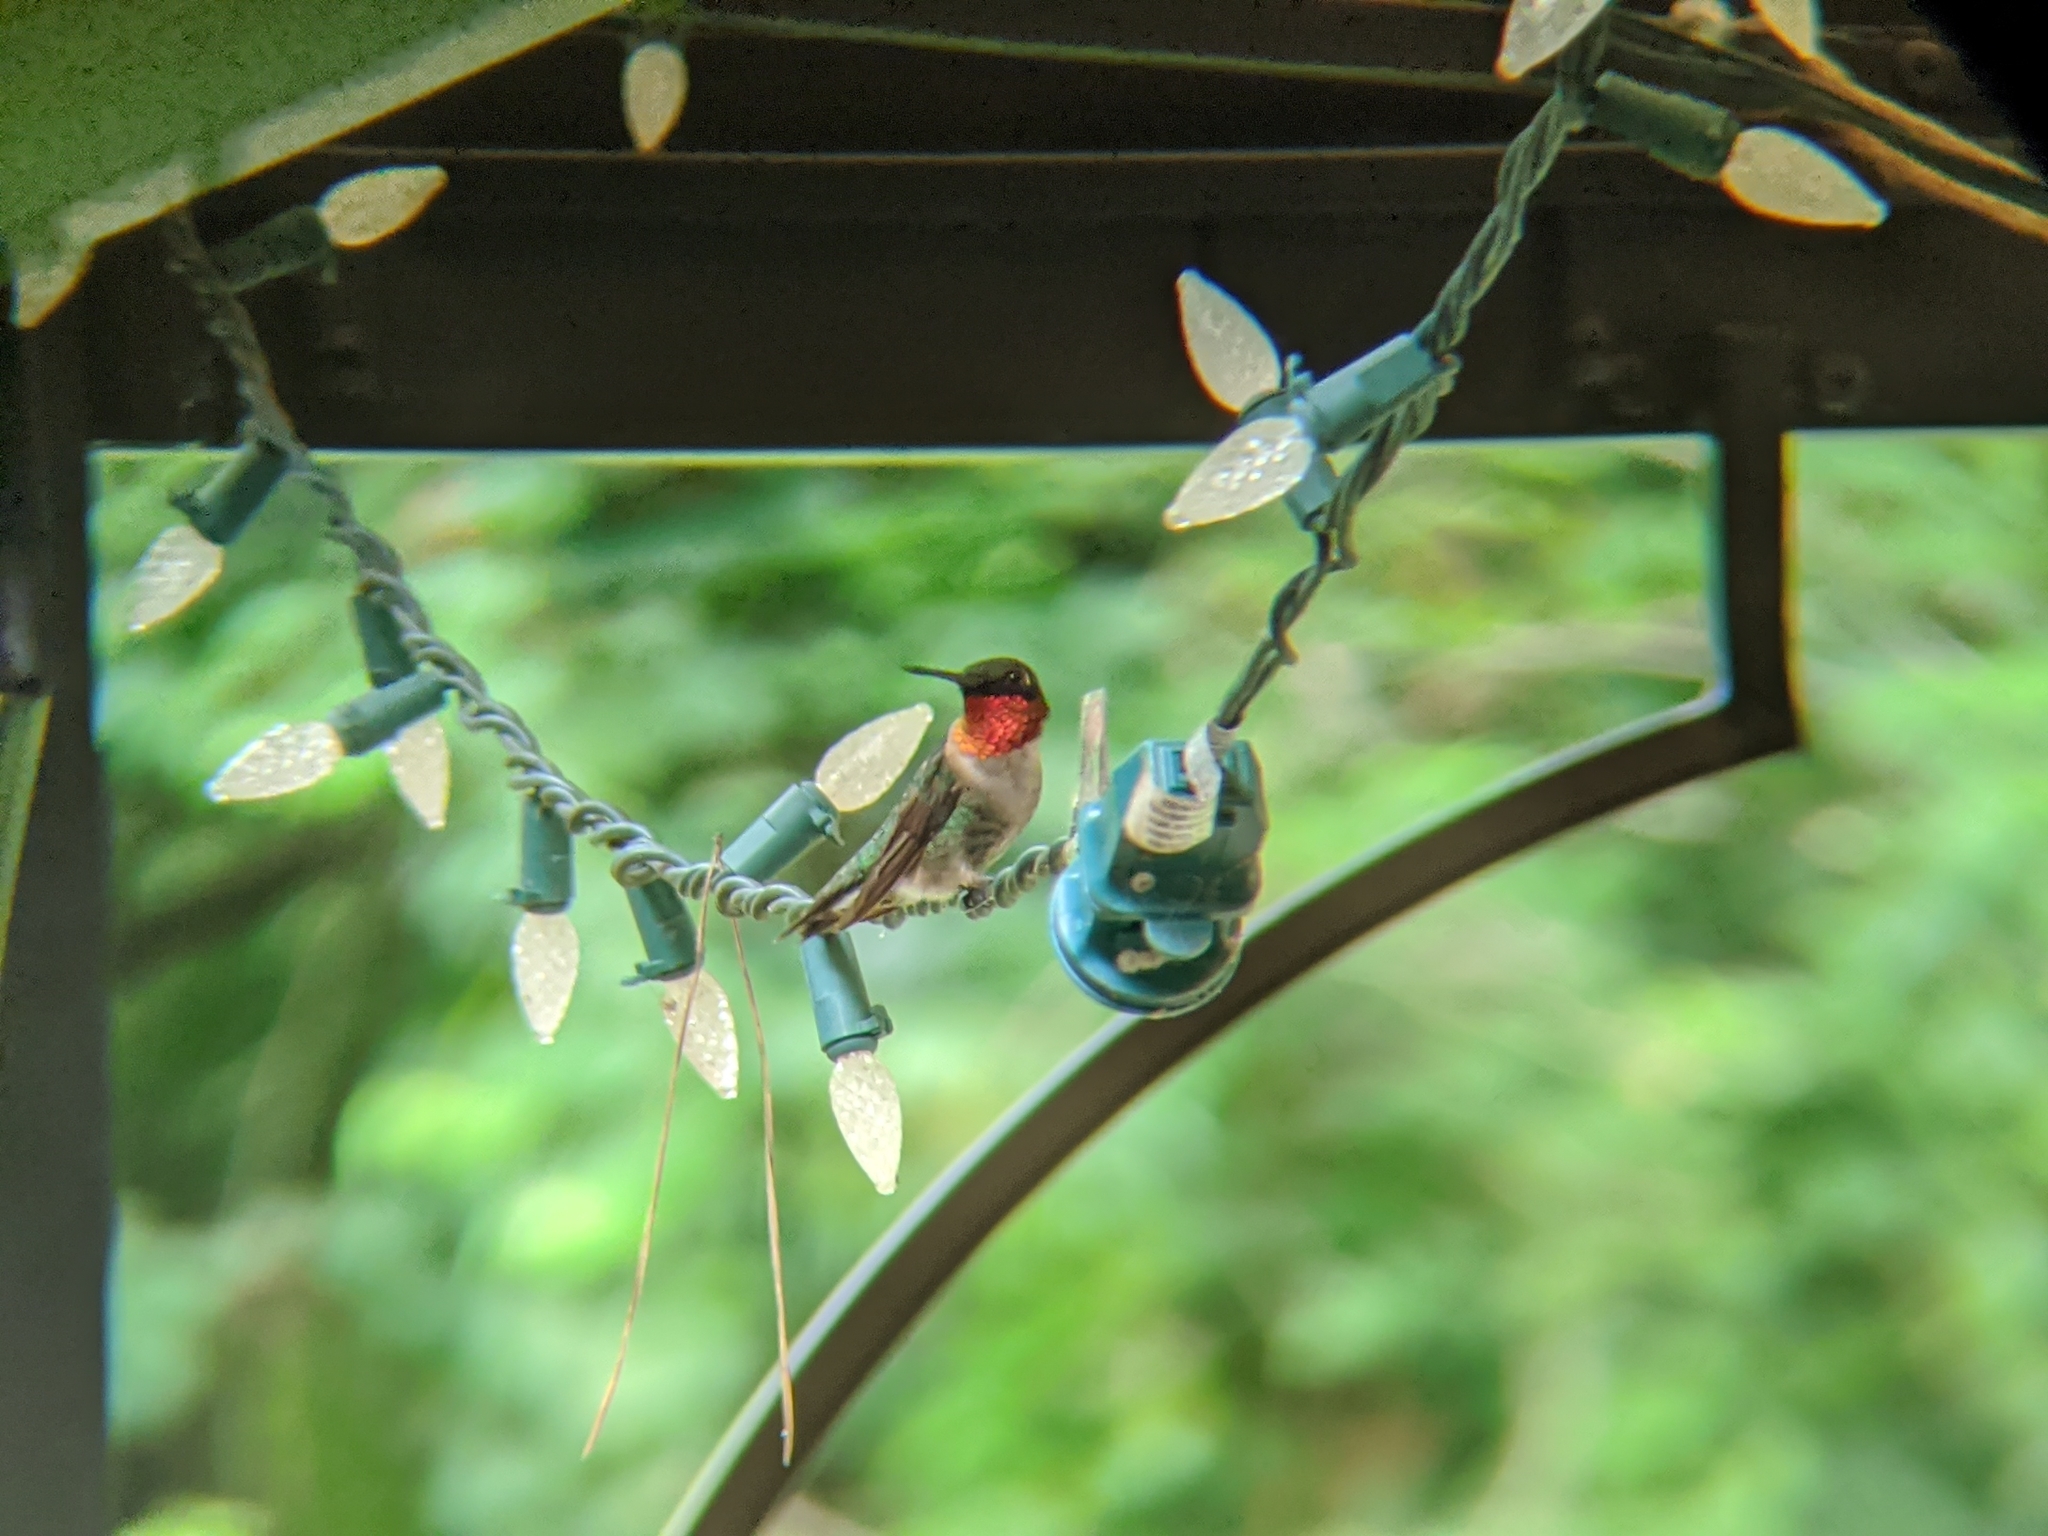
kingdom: Animalia
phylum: Chordata
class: Aves
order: Apodiformes
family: Trochilidae
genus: Archilochus
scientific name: Archilochus colubris
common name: Ruby-throated hummingbird
